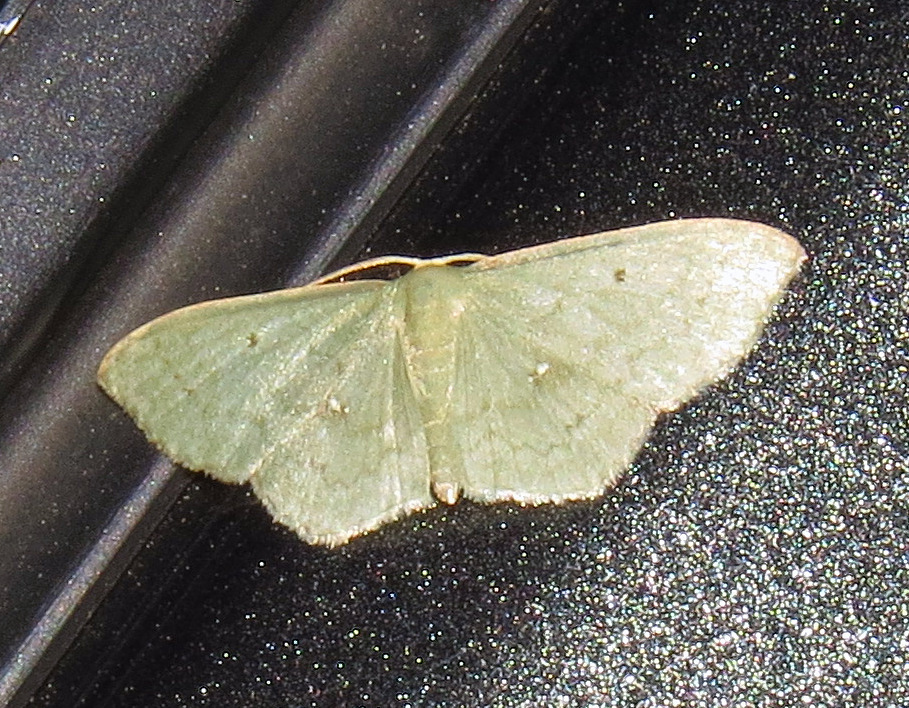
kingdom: Animalia
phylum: Arthropoda
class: Insecta
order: Lepidoptera
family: Geometridae
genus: Dithecodes
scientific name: Dithecodes deaurata
